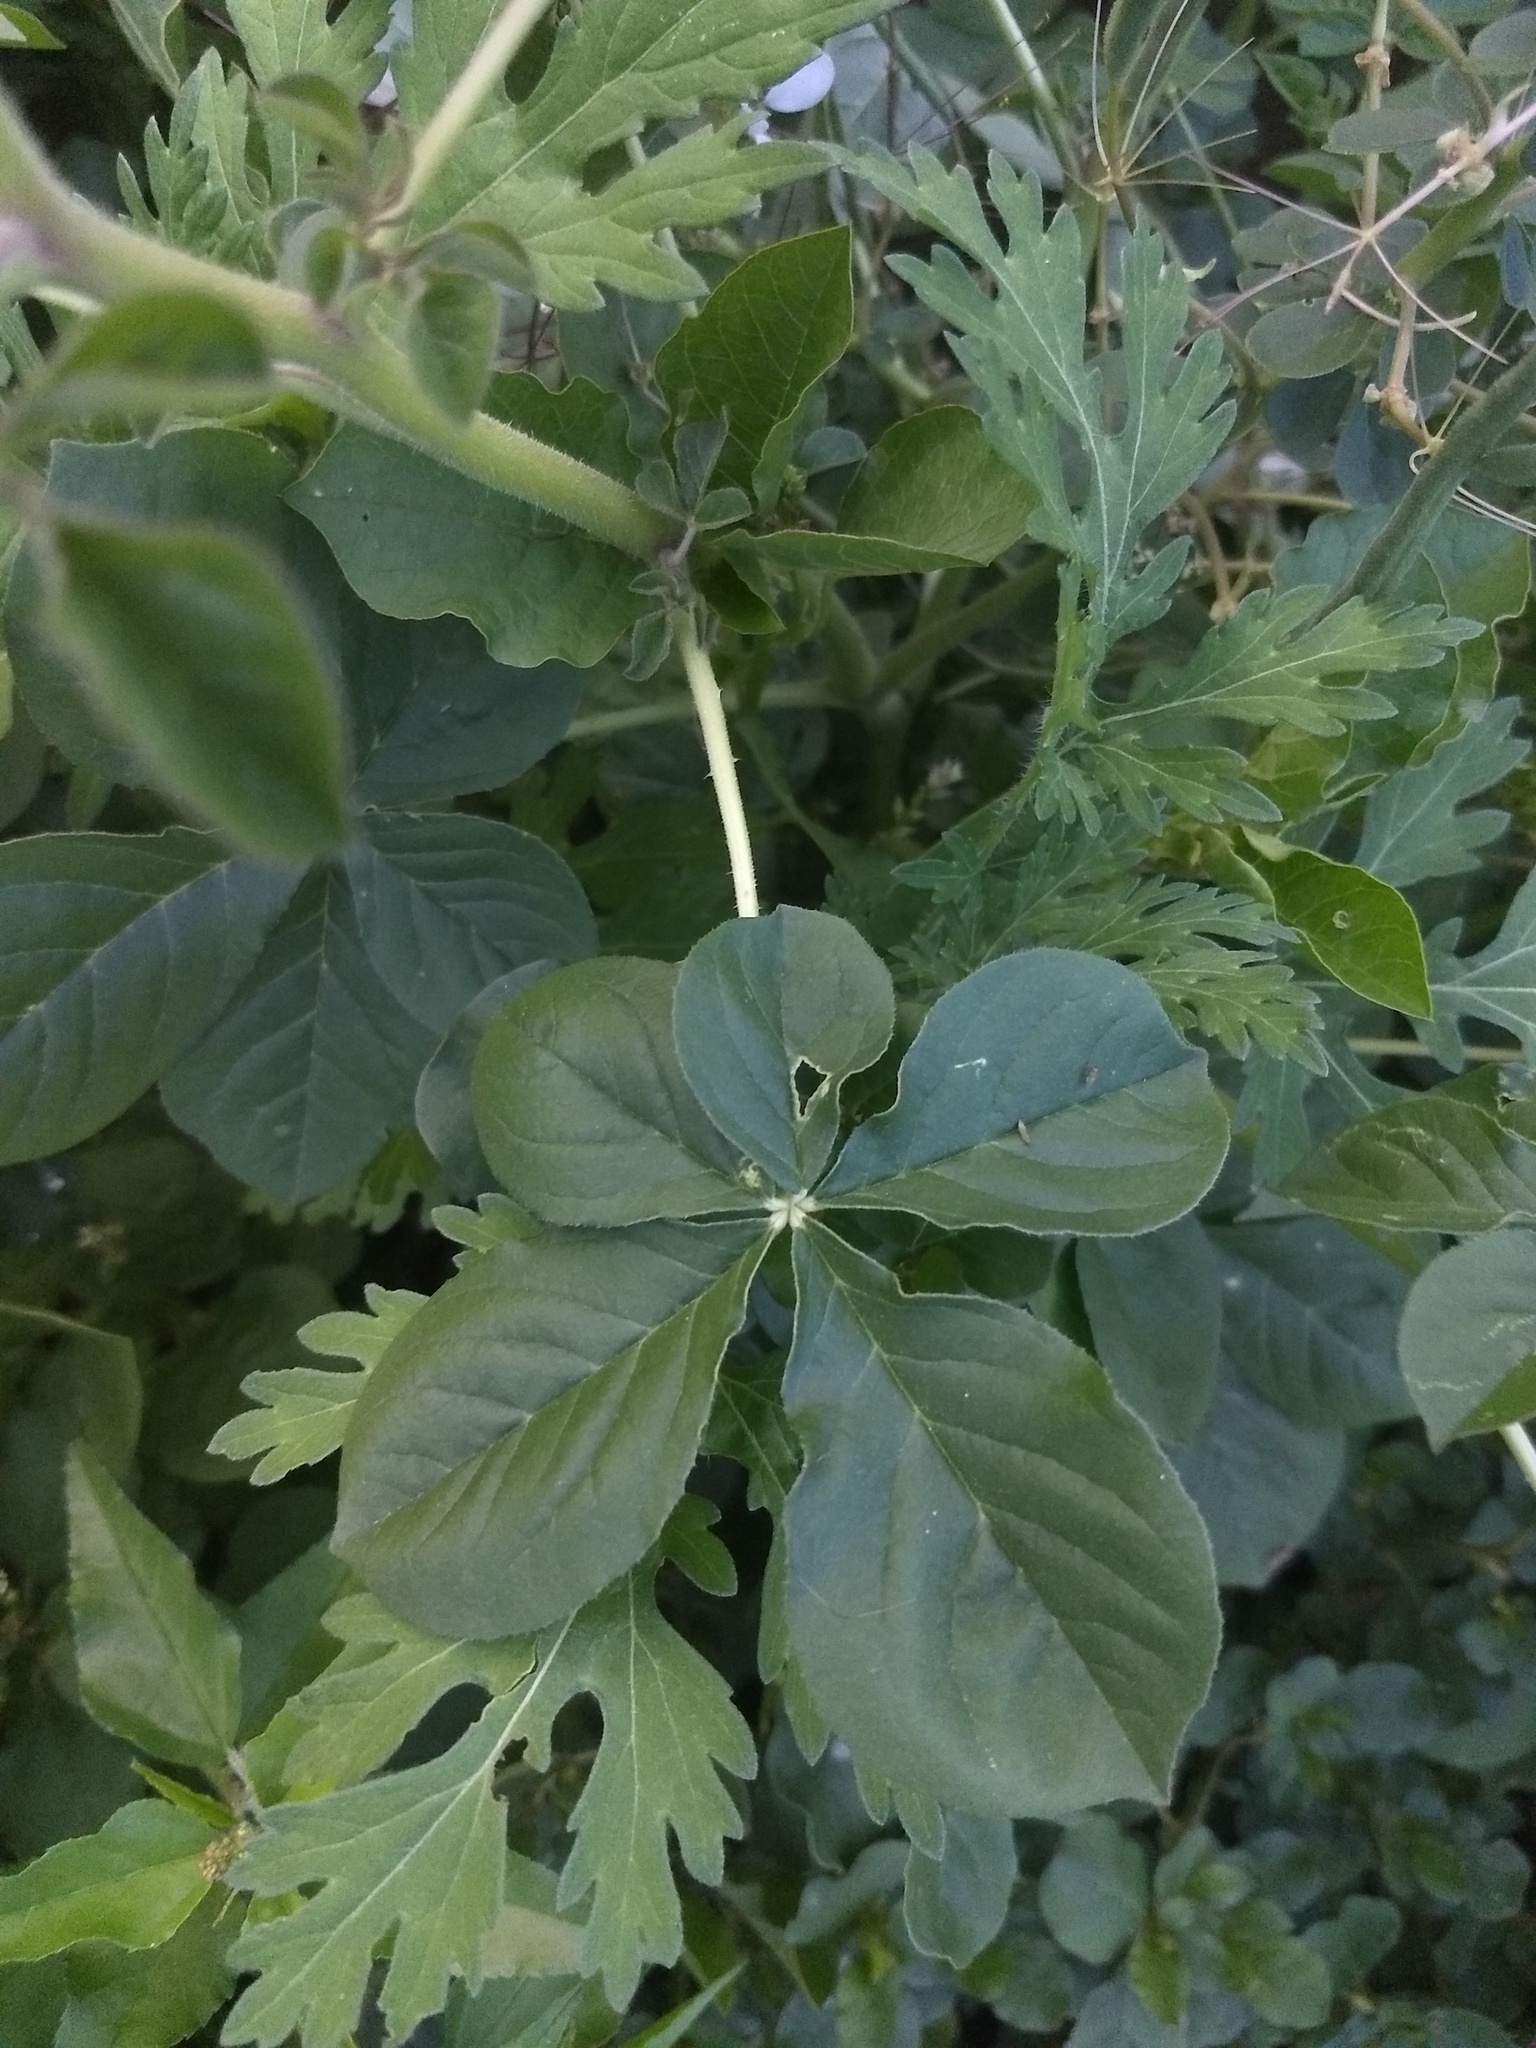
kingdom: Plantae
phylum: Tracheophyta
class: Magnoliopsida
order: Brassicales
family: Cleomaceae
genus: Gynandropsis
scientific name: Gynandropsis gynandra
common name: Spiderwisp
